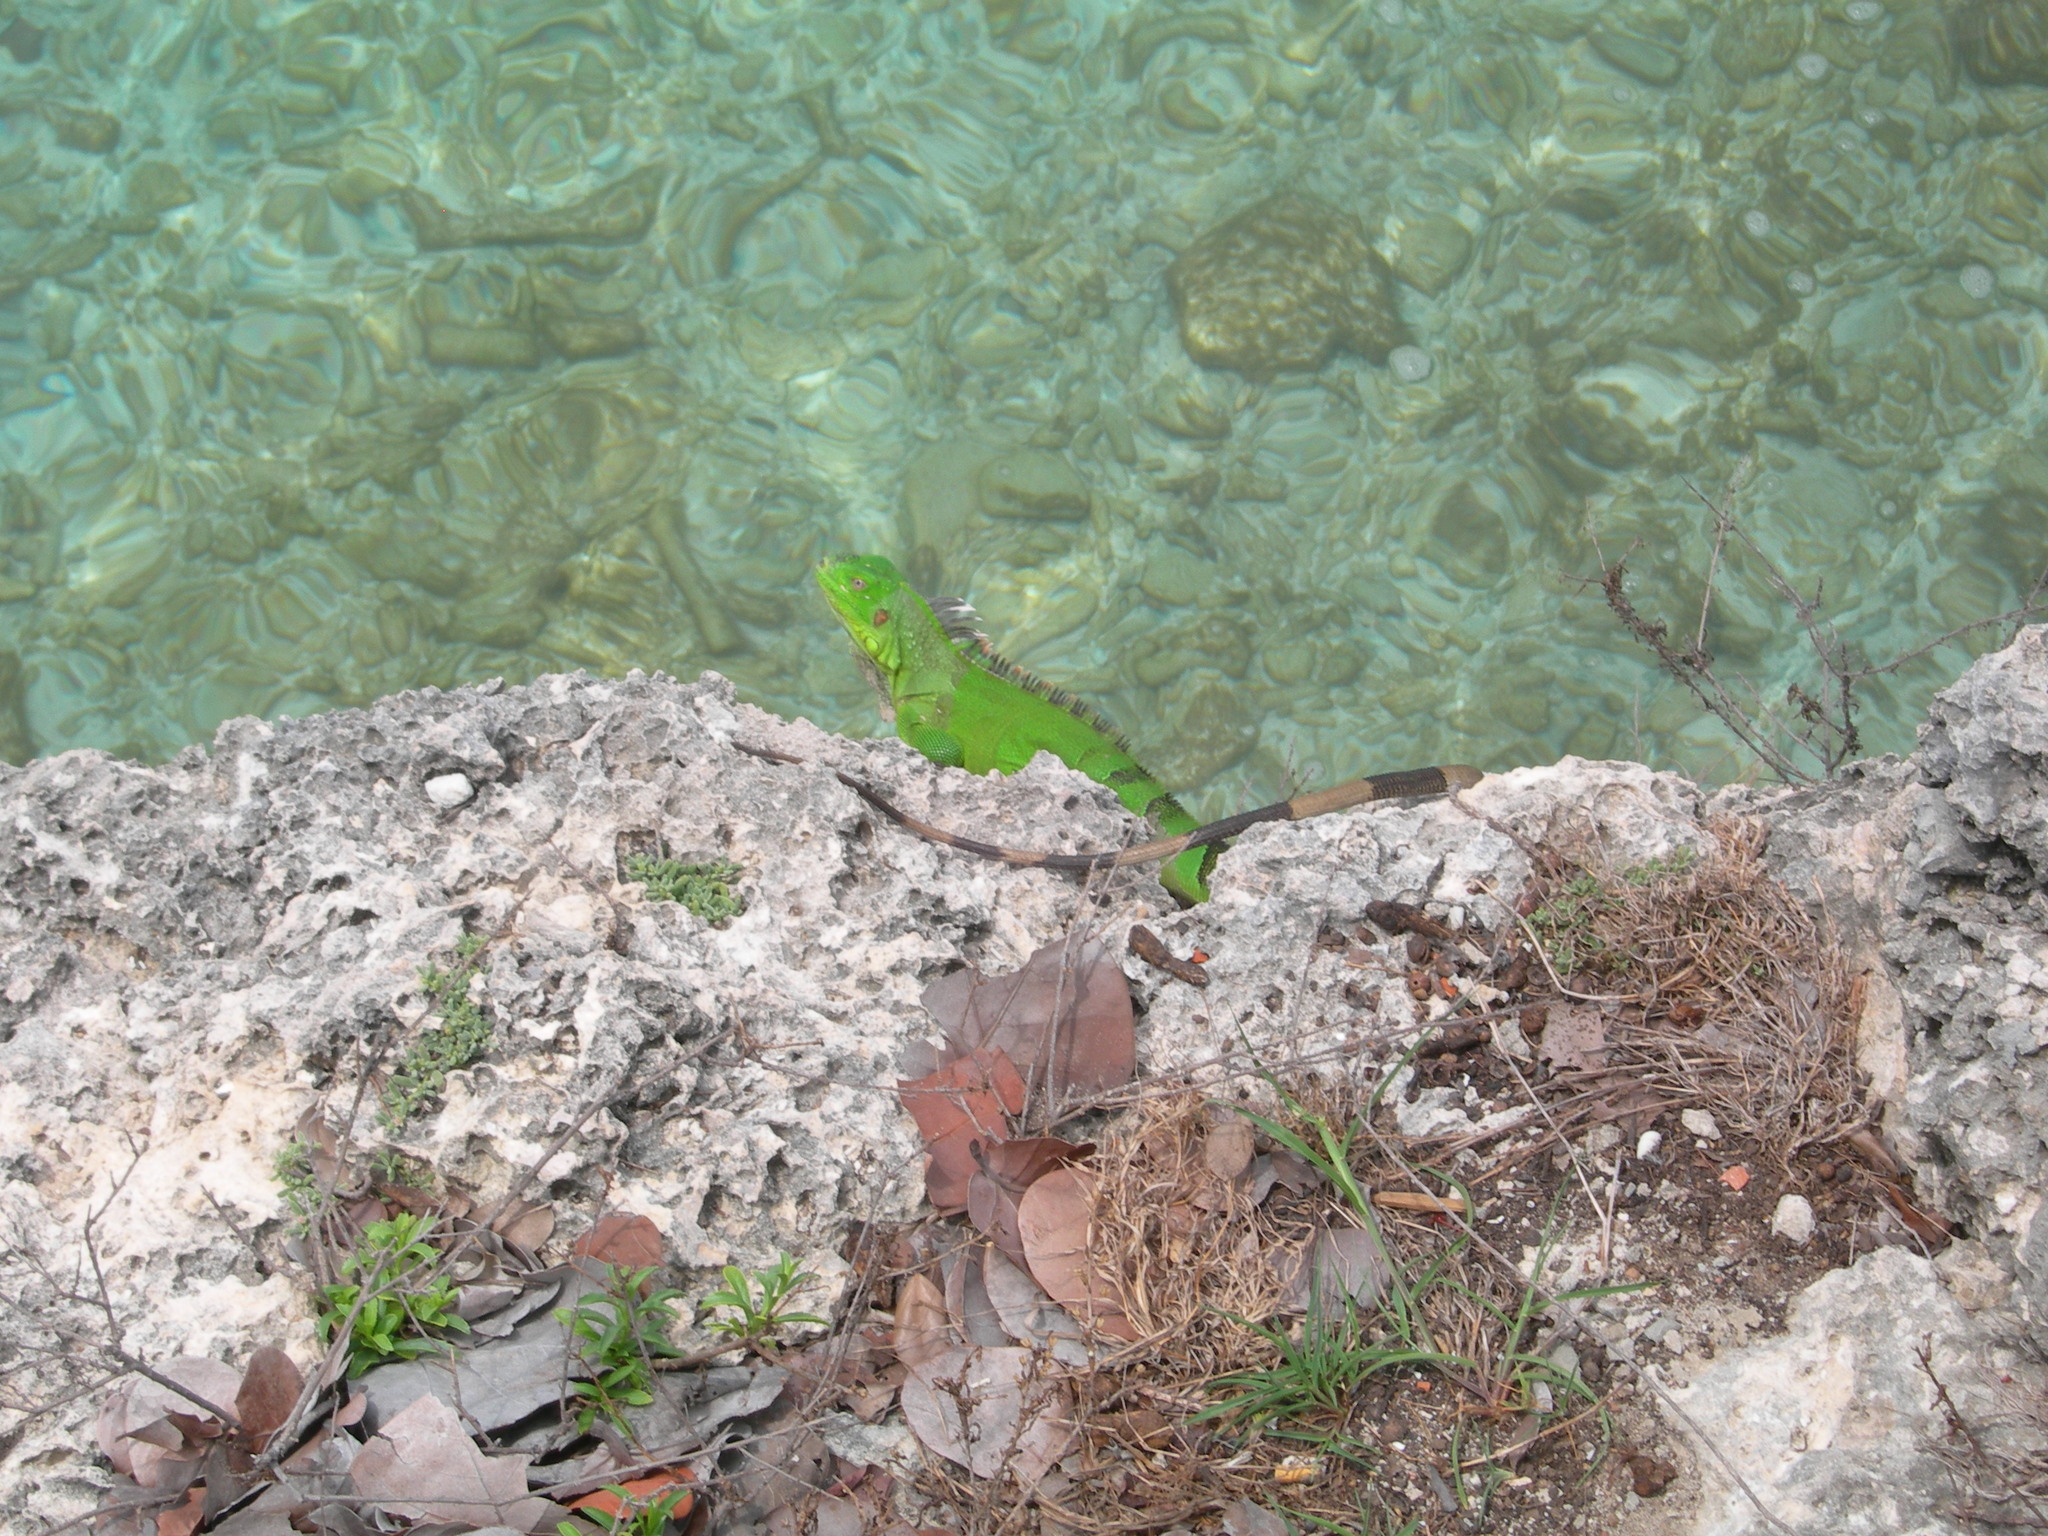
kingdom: Animalia
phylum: Chordata
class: Squamata
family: Iguanidae
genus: Iguana
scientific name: Iguana iguana
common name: Green iguana
